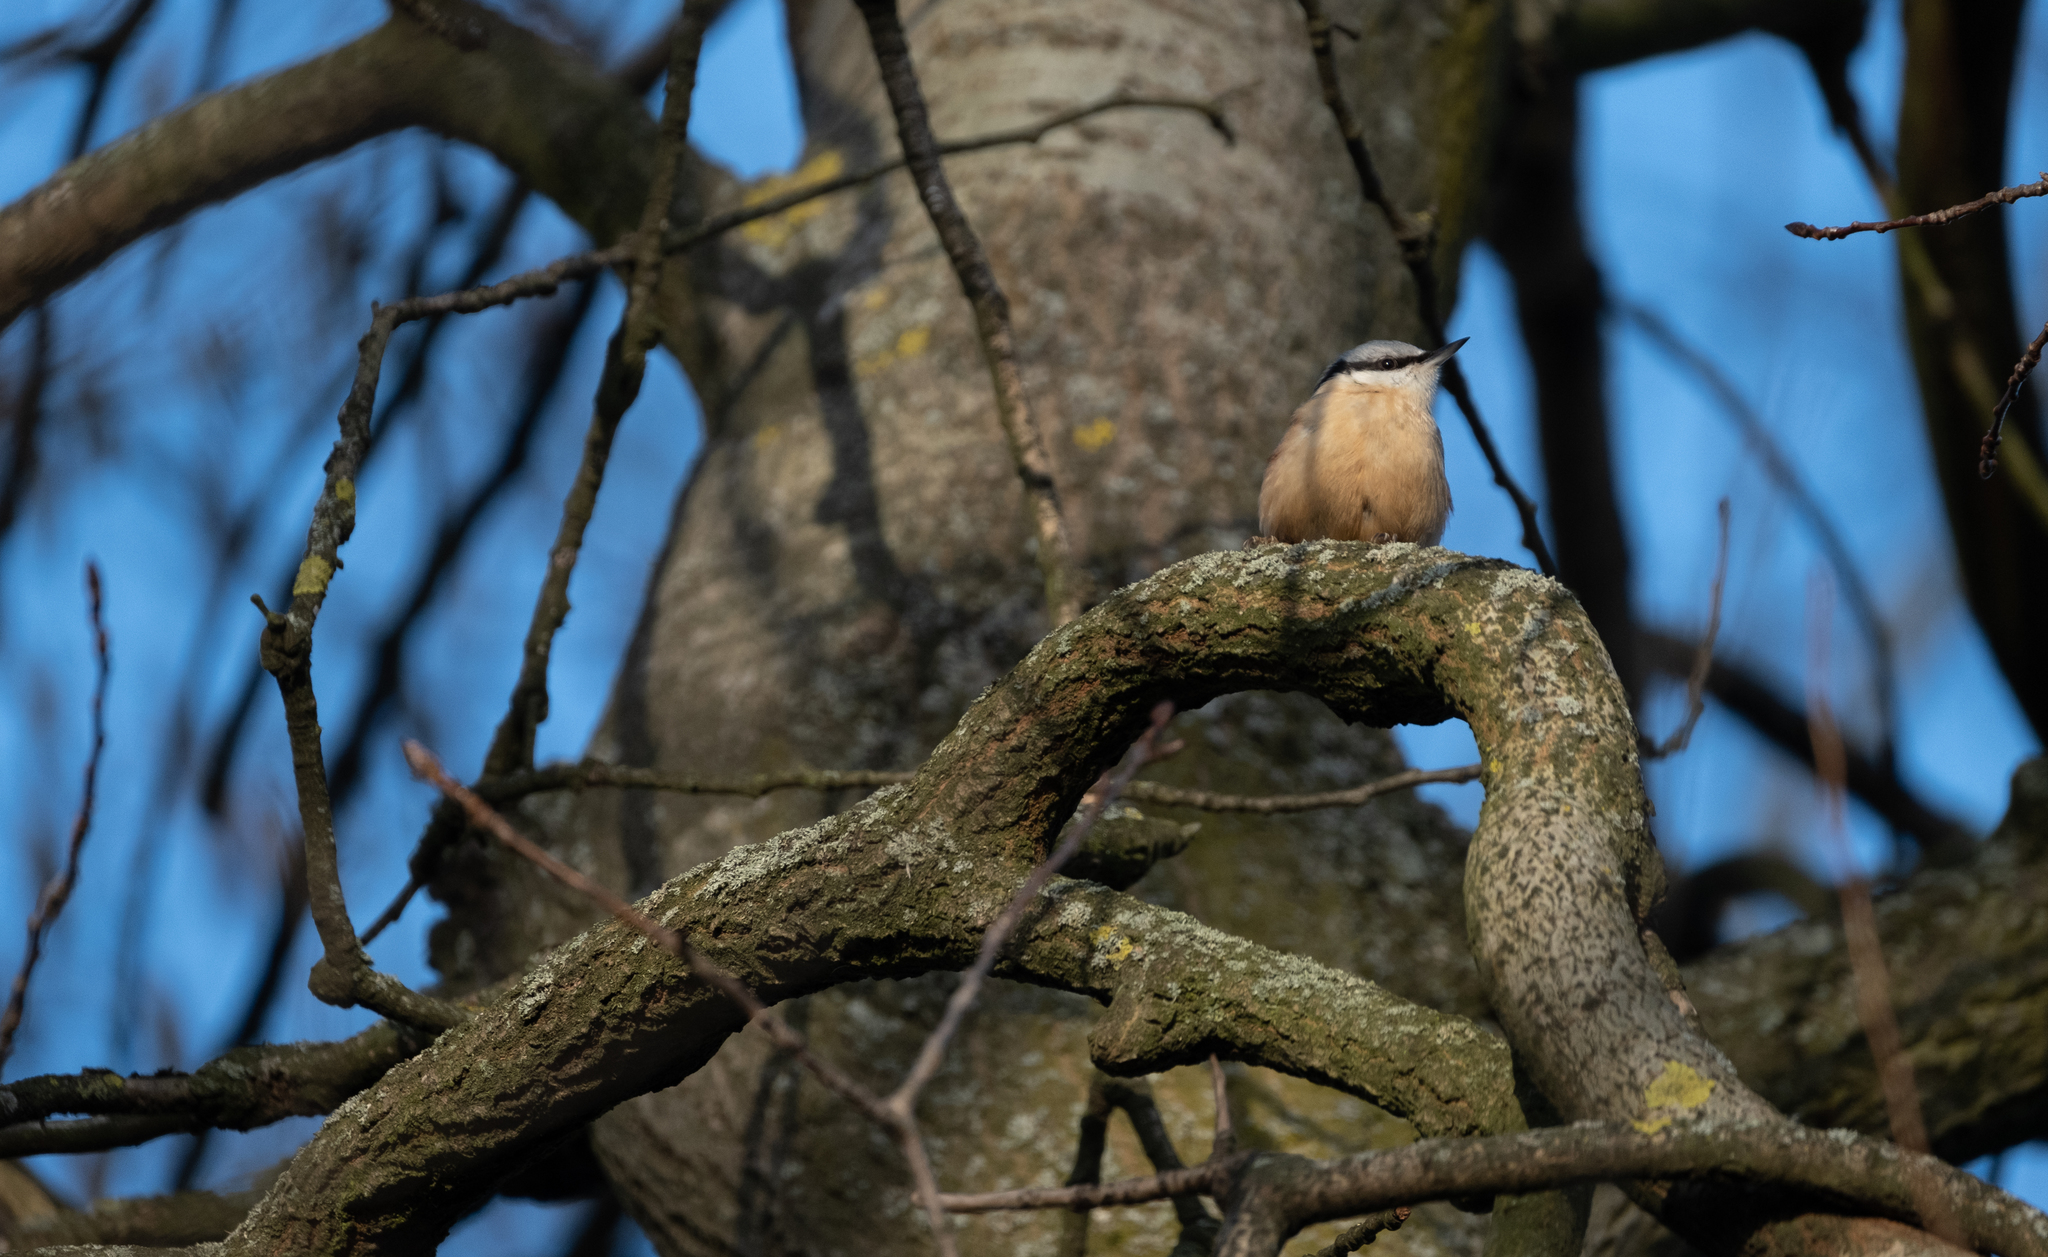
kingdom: Animalia
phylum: Chordata
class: Aves
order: Passeriformes
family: Sittidae
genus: Sitta
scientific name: Sitta europaea
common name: Eurasian nuthatch
